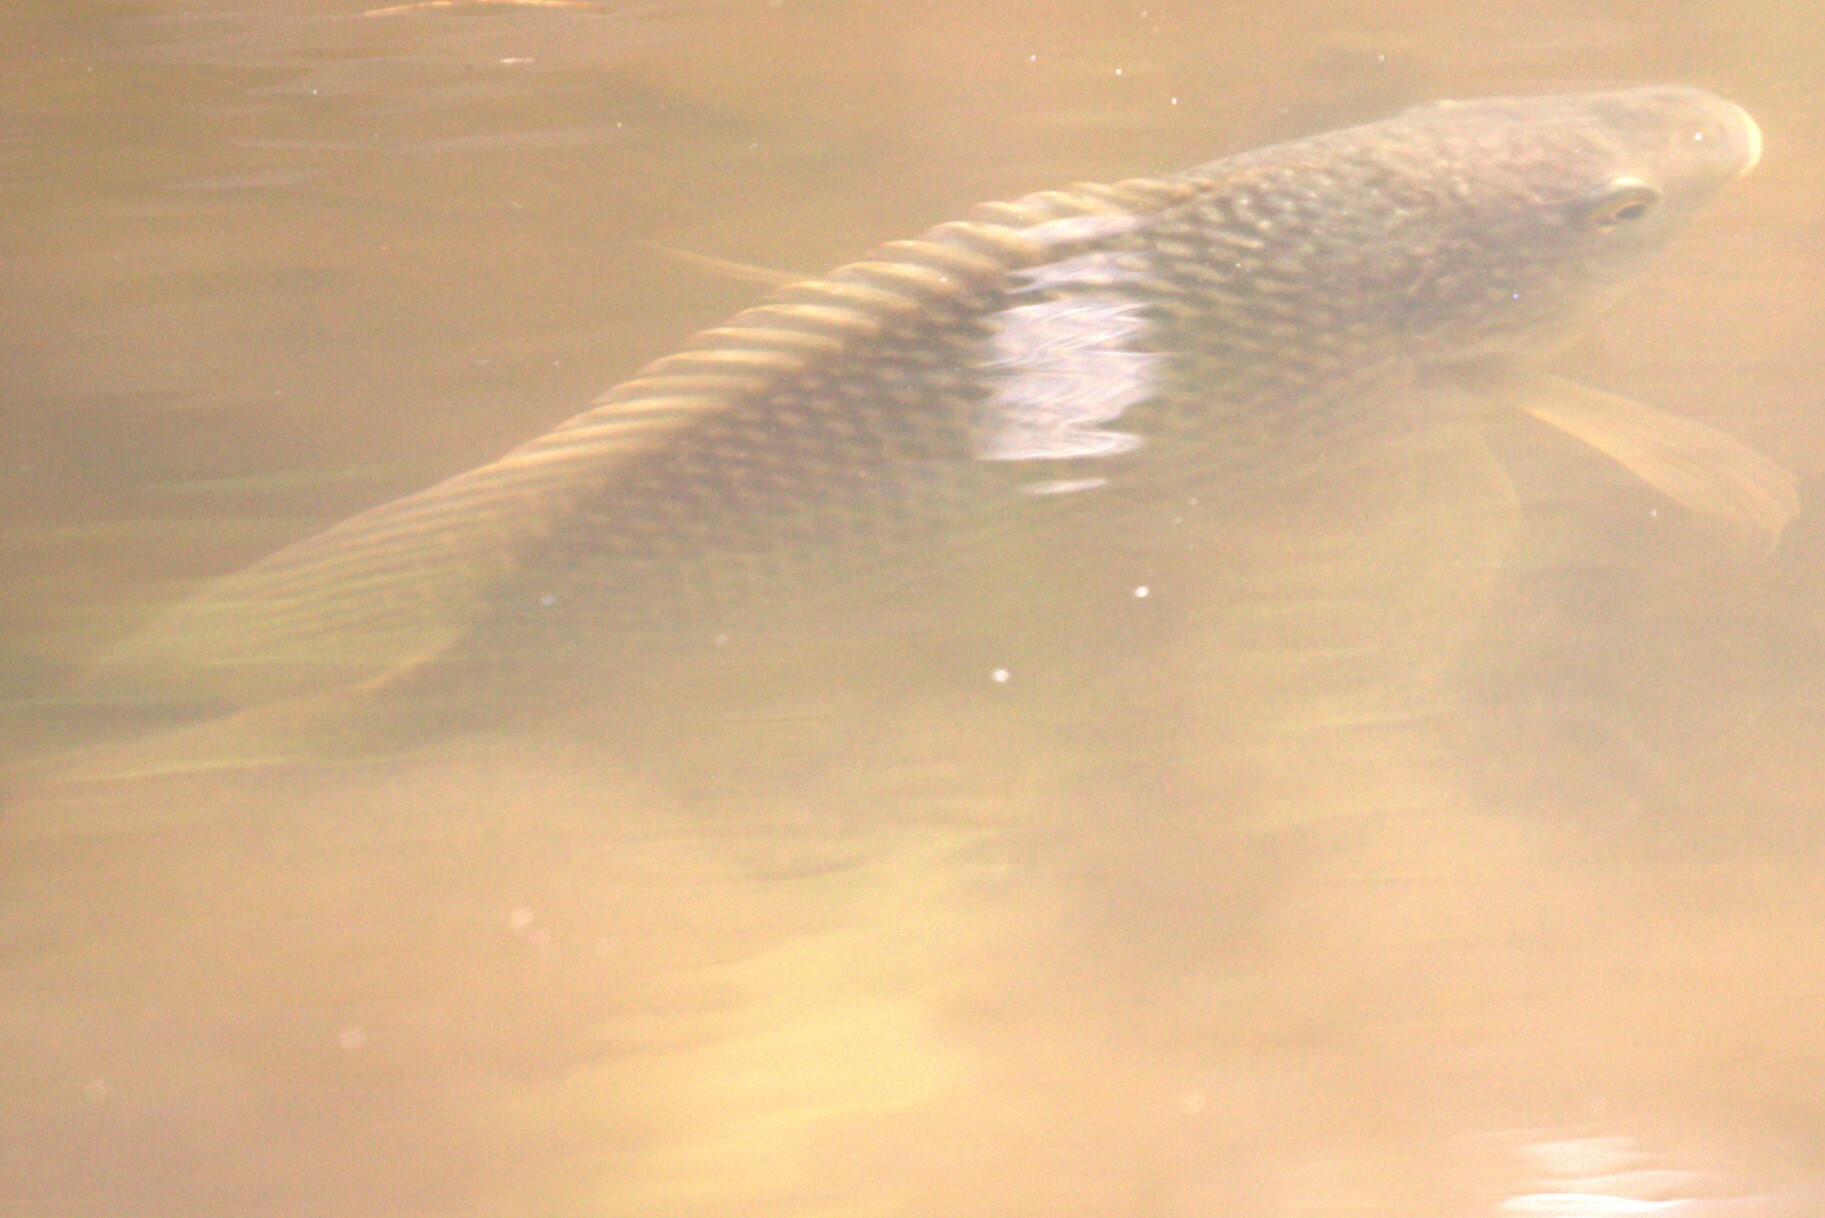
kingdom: Animalia
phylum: Chordata
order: Perciformes
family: Cichlidae
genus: Oreochromis
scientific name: Oreochromis mossambicus
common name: Mozambique tilapia
